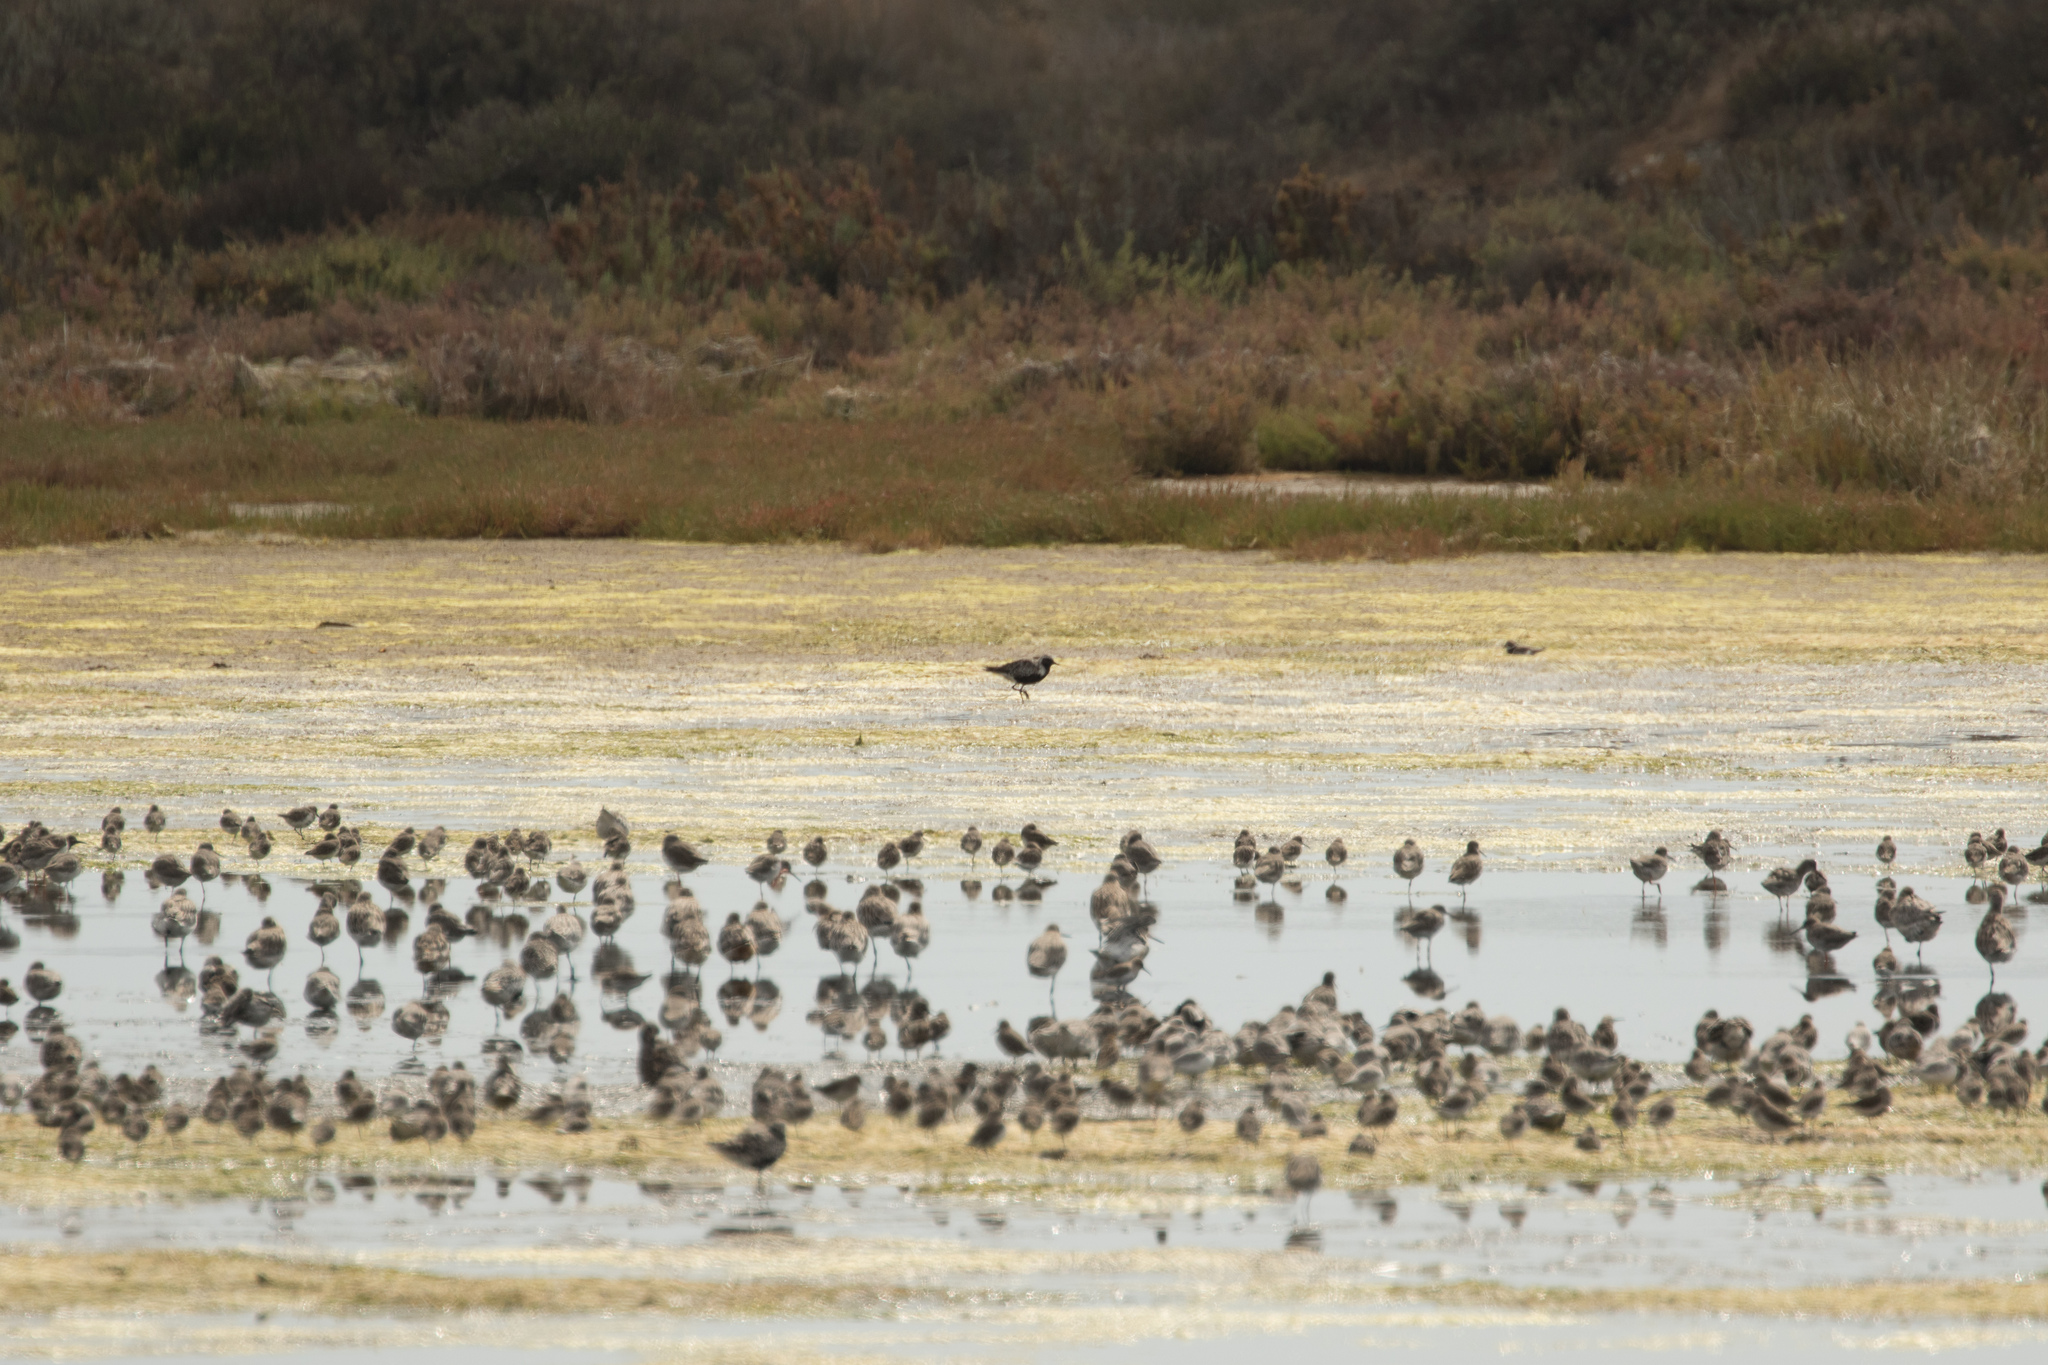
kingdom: Animalia
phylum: Chordata
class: Aves
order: Charadriiformes
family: Charadriidae
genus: Pluvialis
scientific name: Pluvialis squatarola
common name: Grey plover
